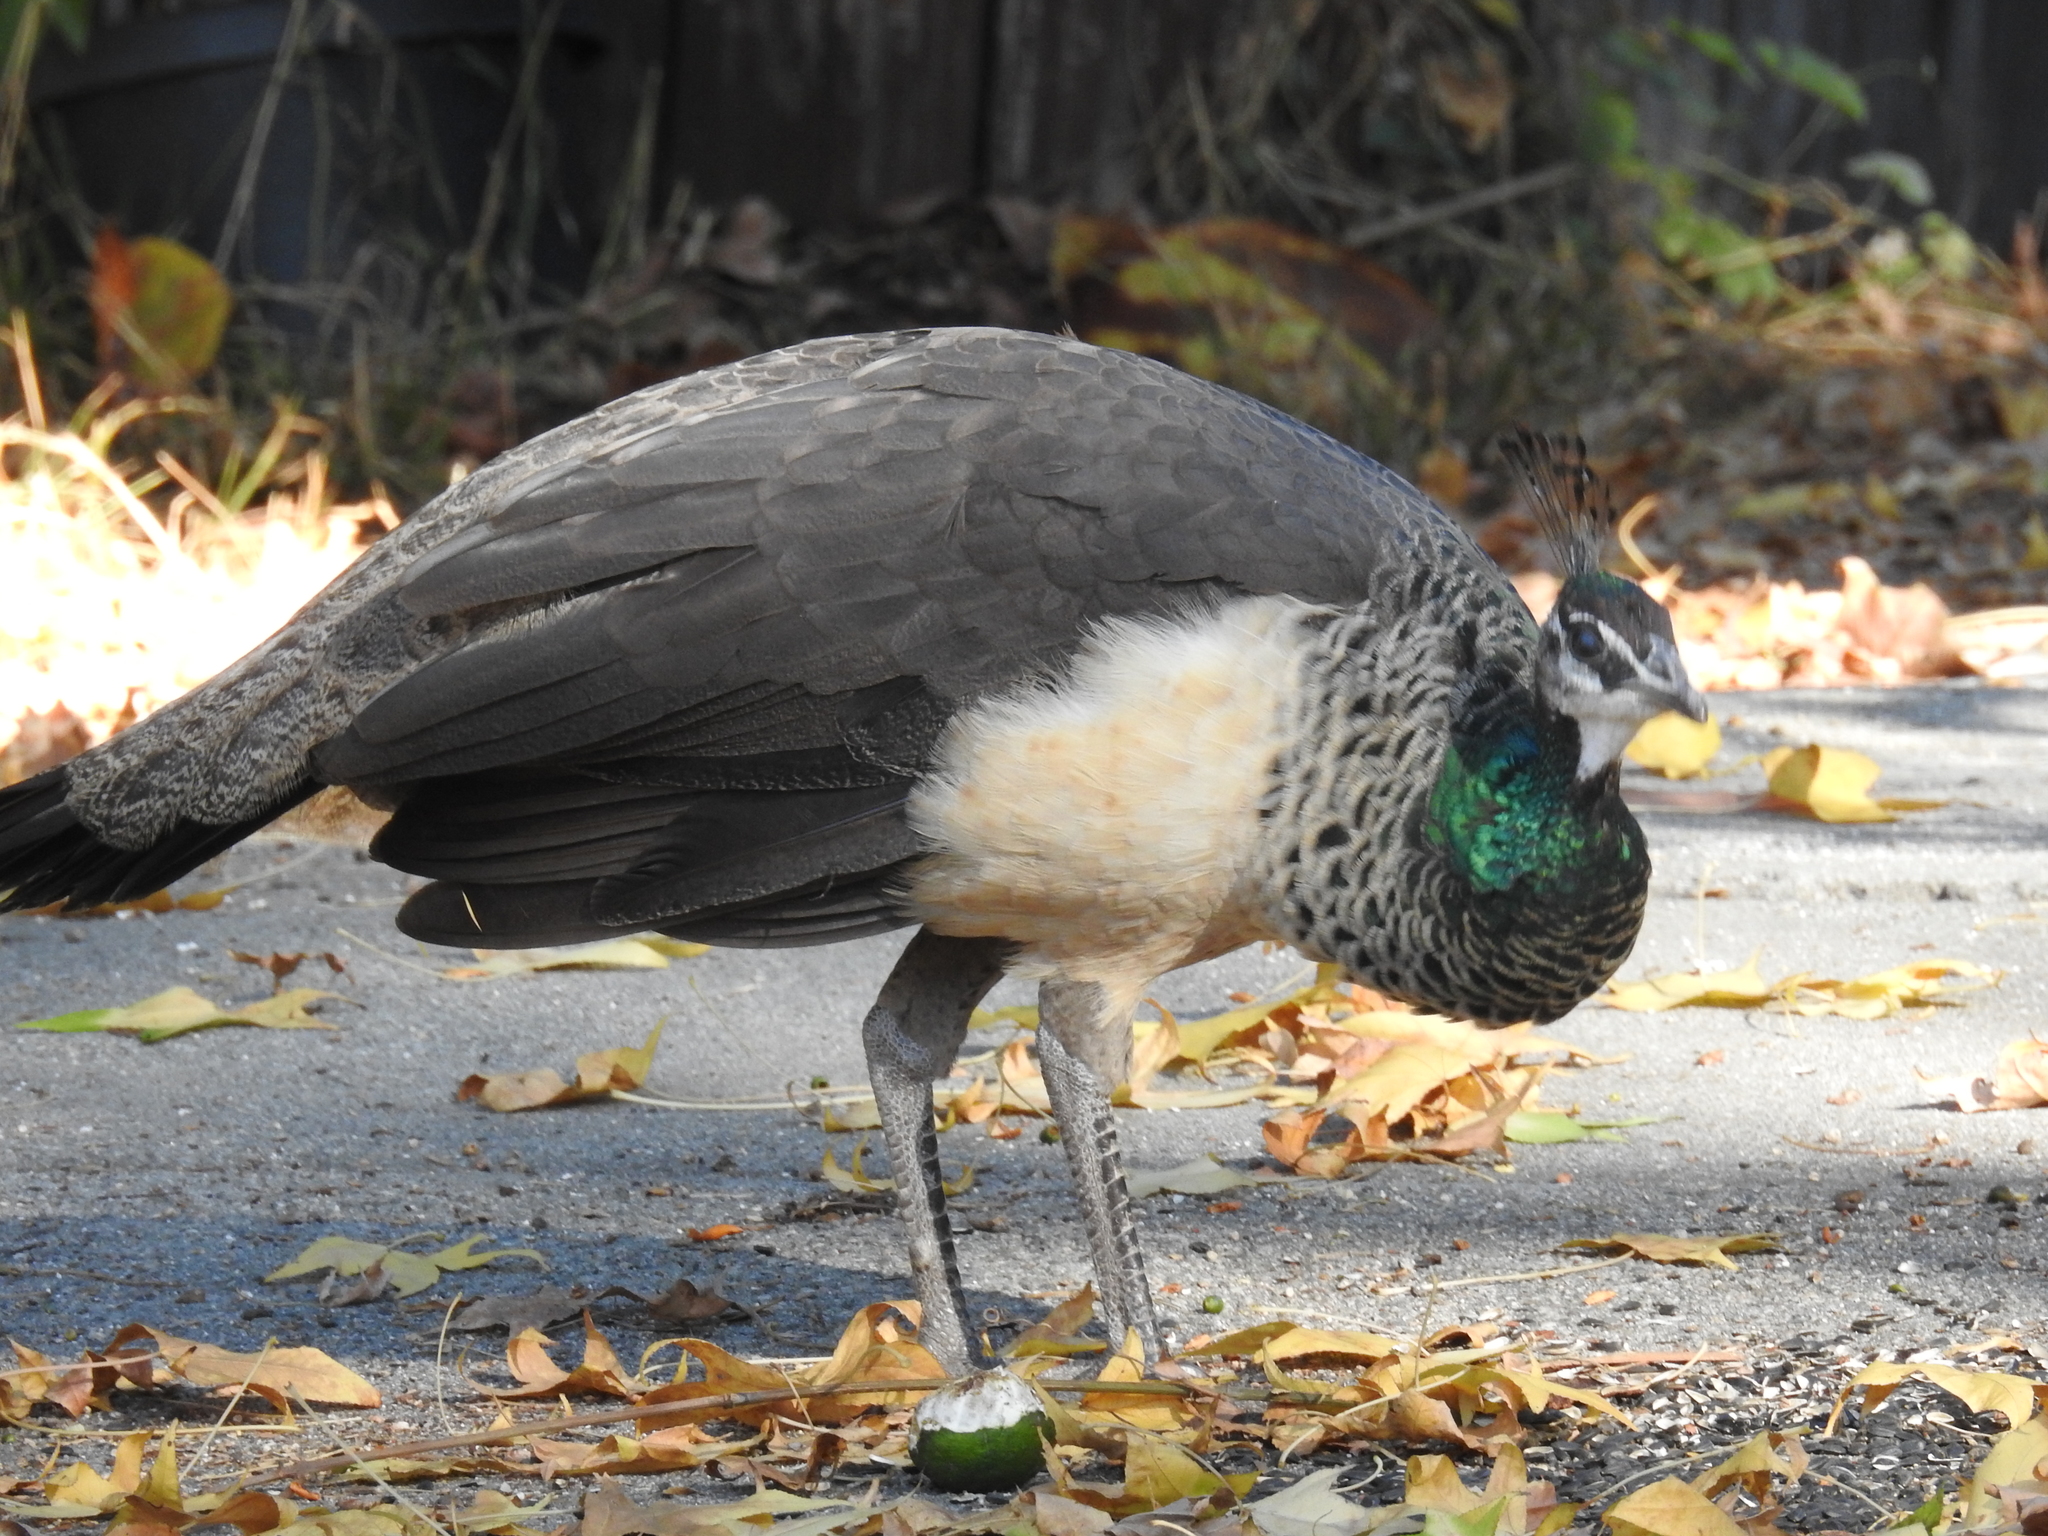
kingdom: Animalia
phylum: Chordata
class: Aves
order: Galliformes
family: Phasianidae
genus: Pavo
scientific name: Pavo cristatus
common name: Indian peafowl
